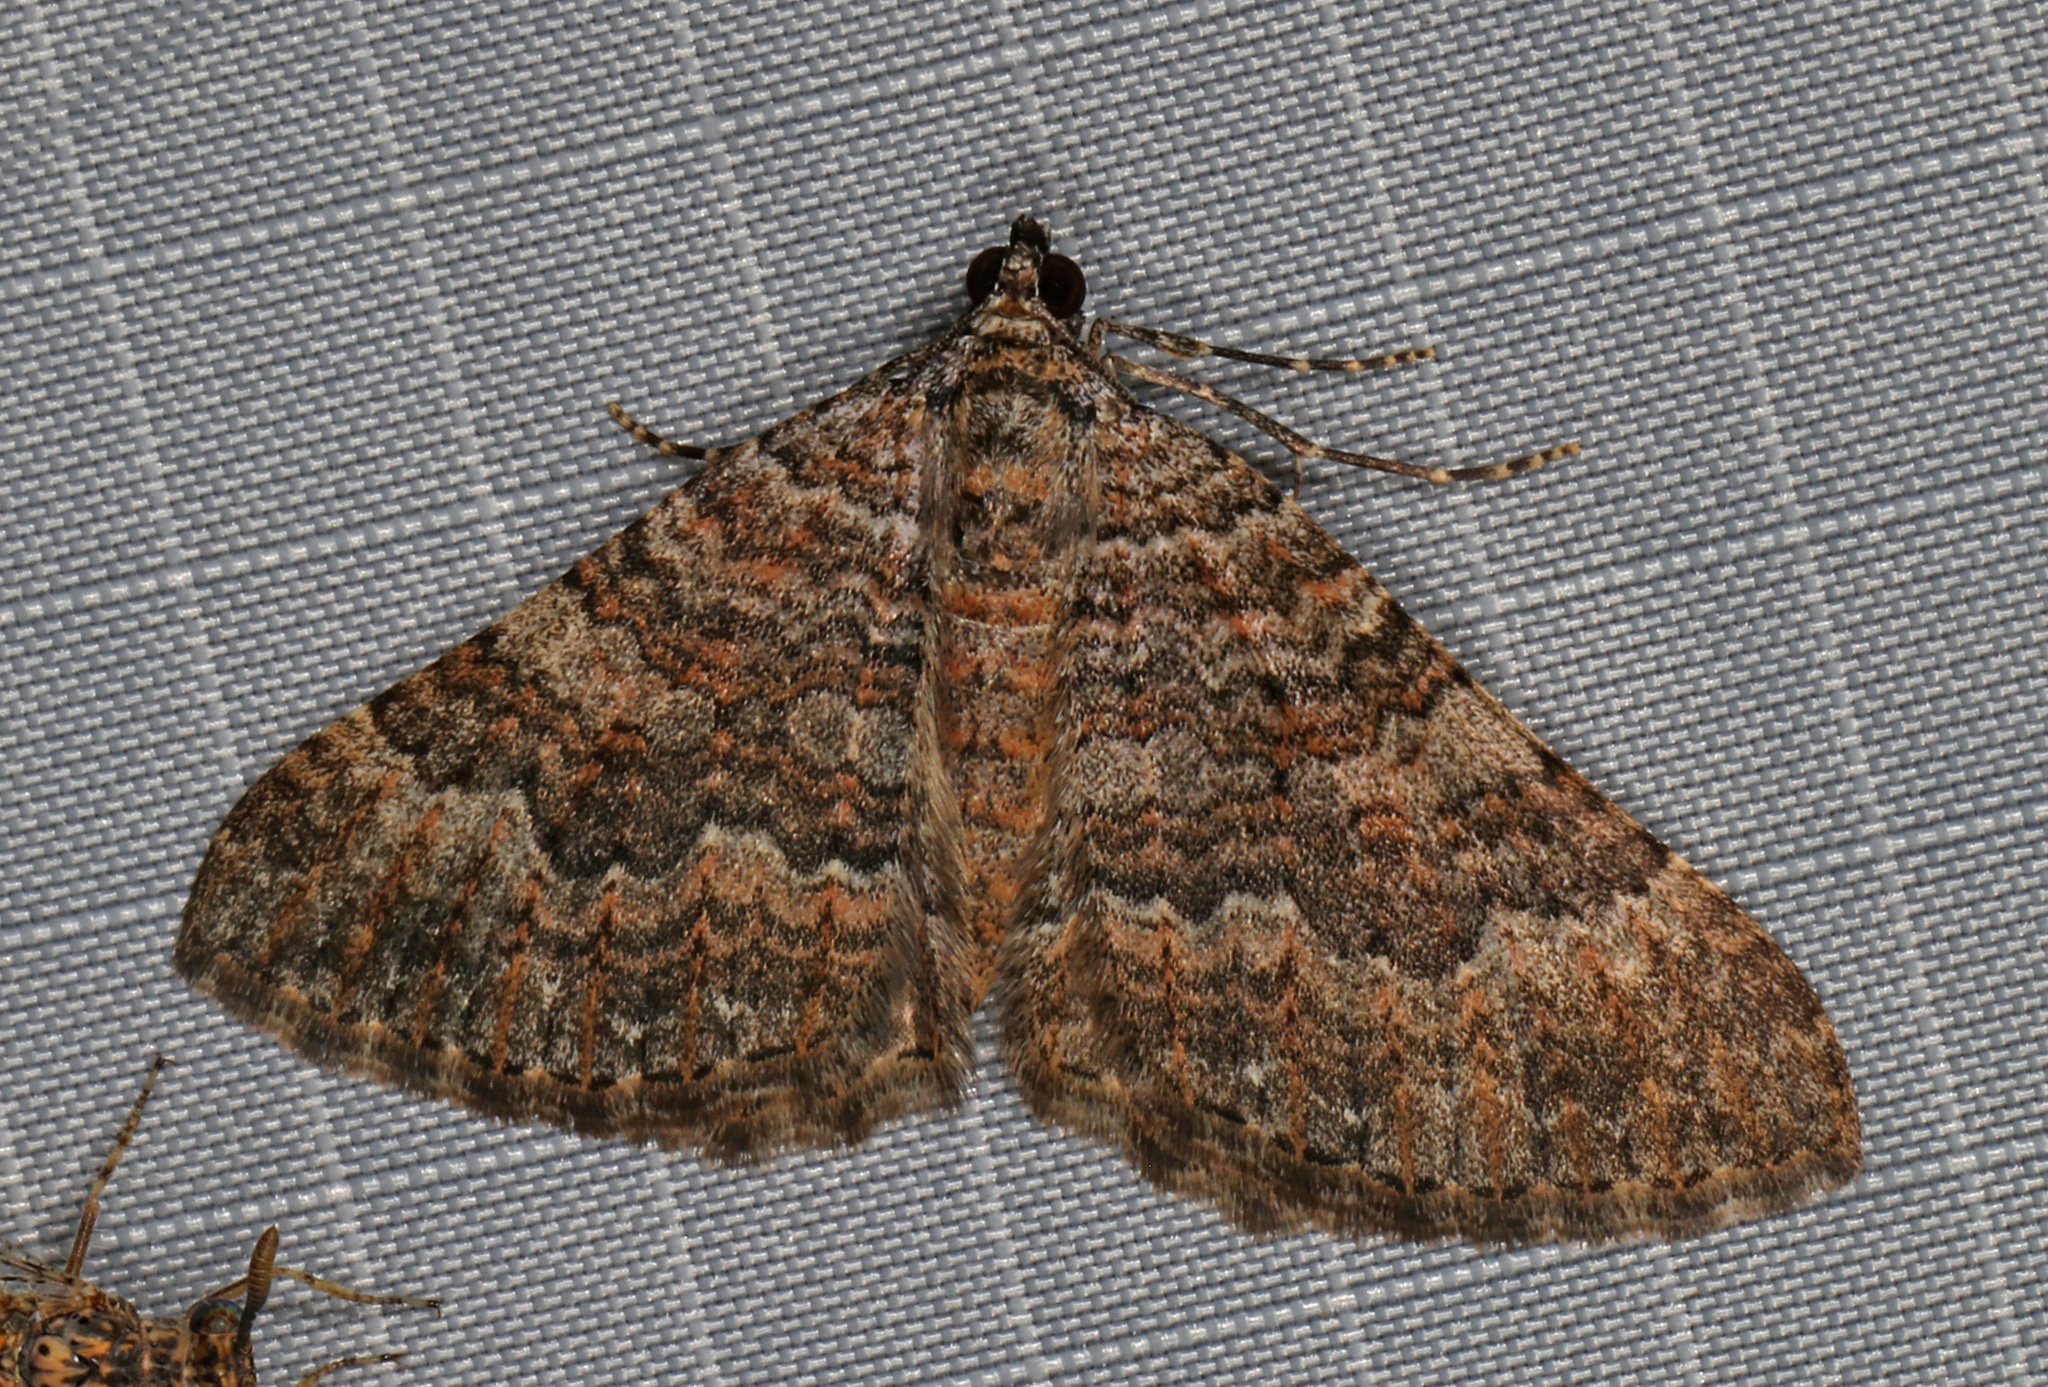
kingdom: Animalia
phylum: Arthropoda
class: Insecta
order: Lepidoptera
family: Geometridae
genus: Archirhoe
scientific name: Archirhoe neomexicana
